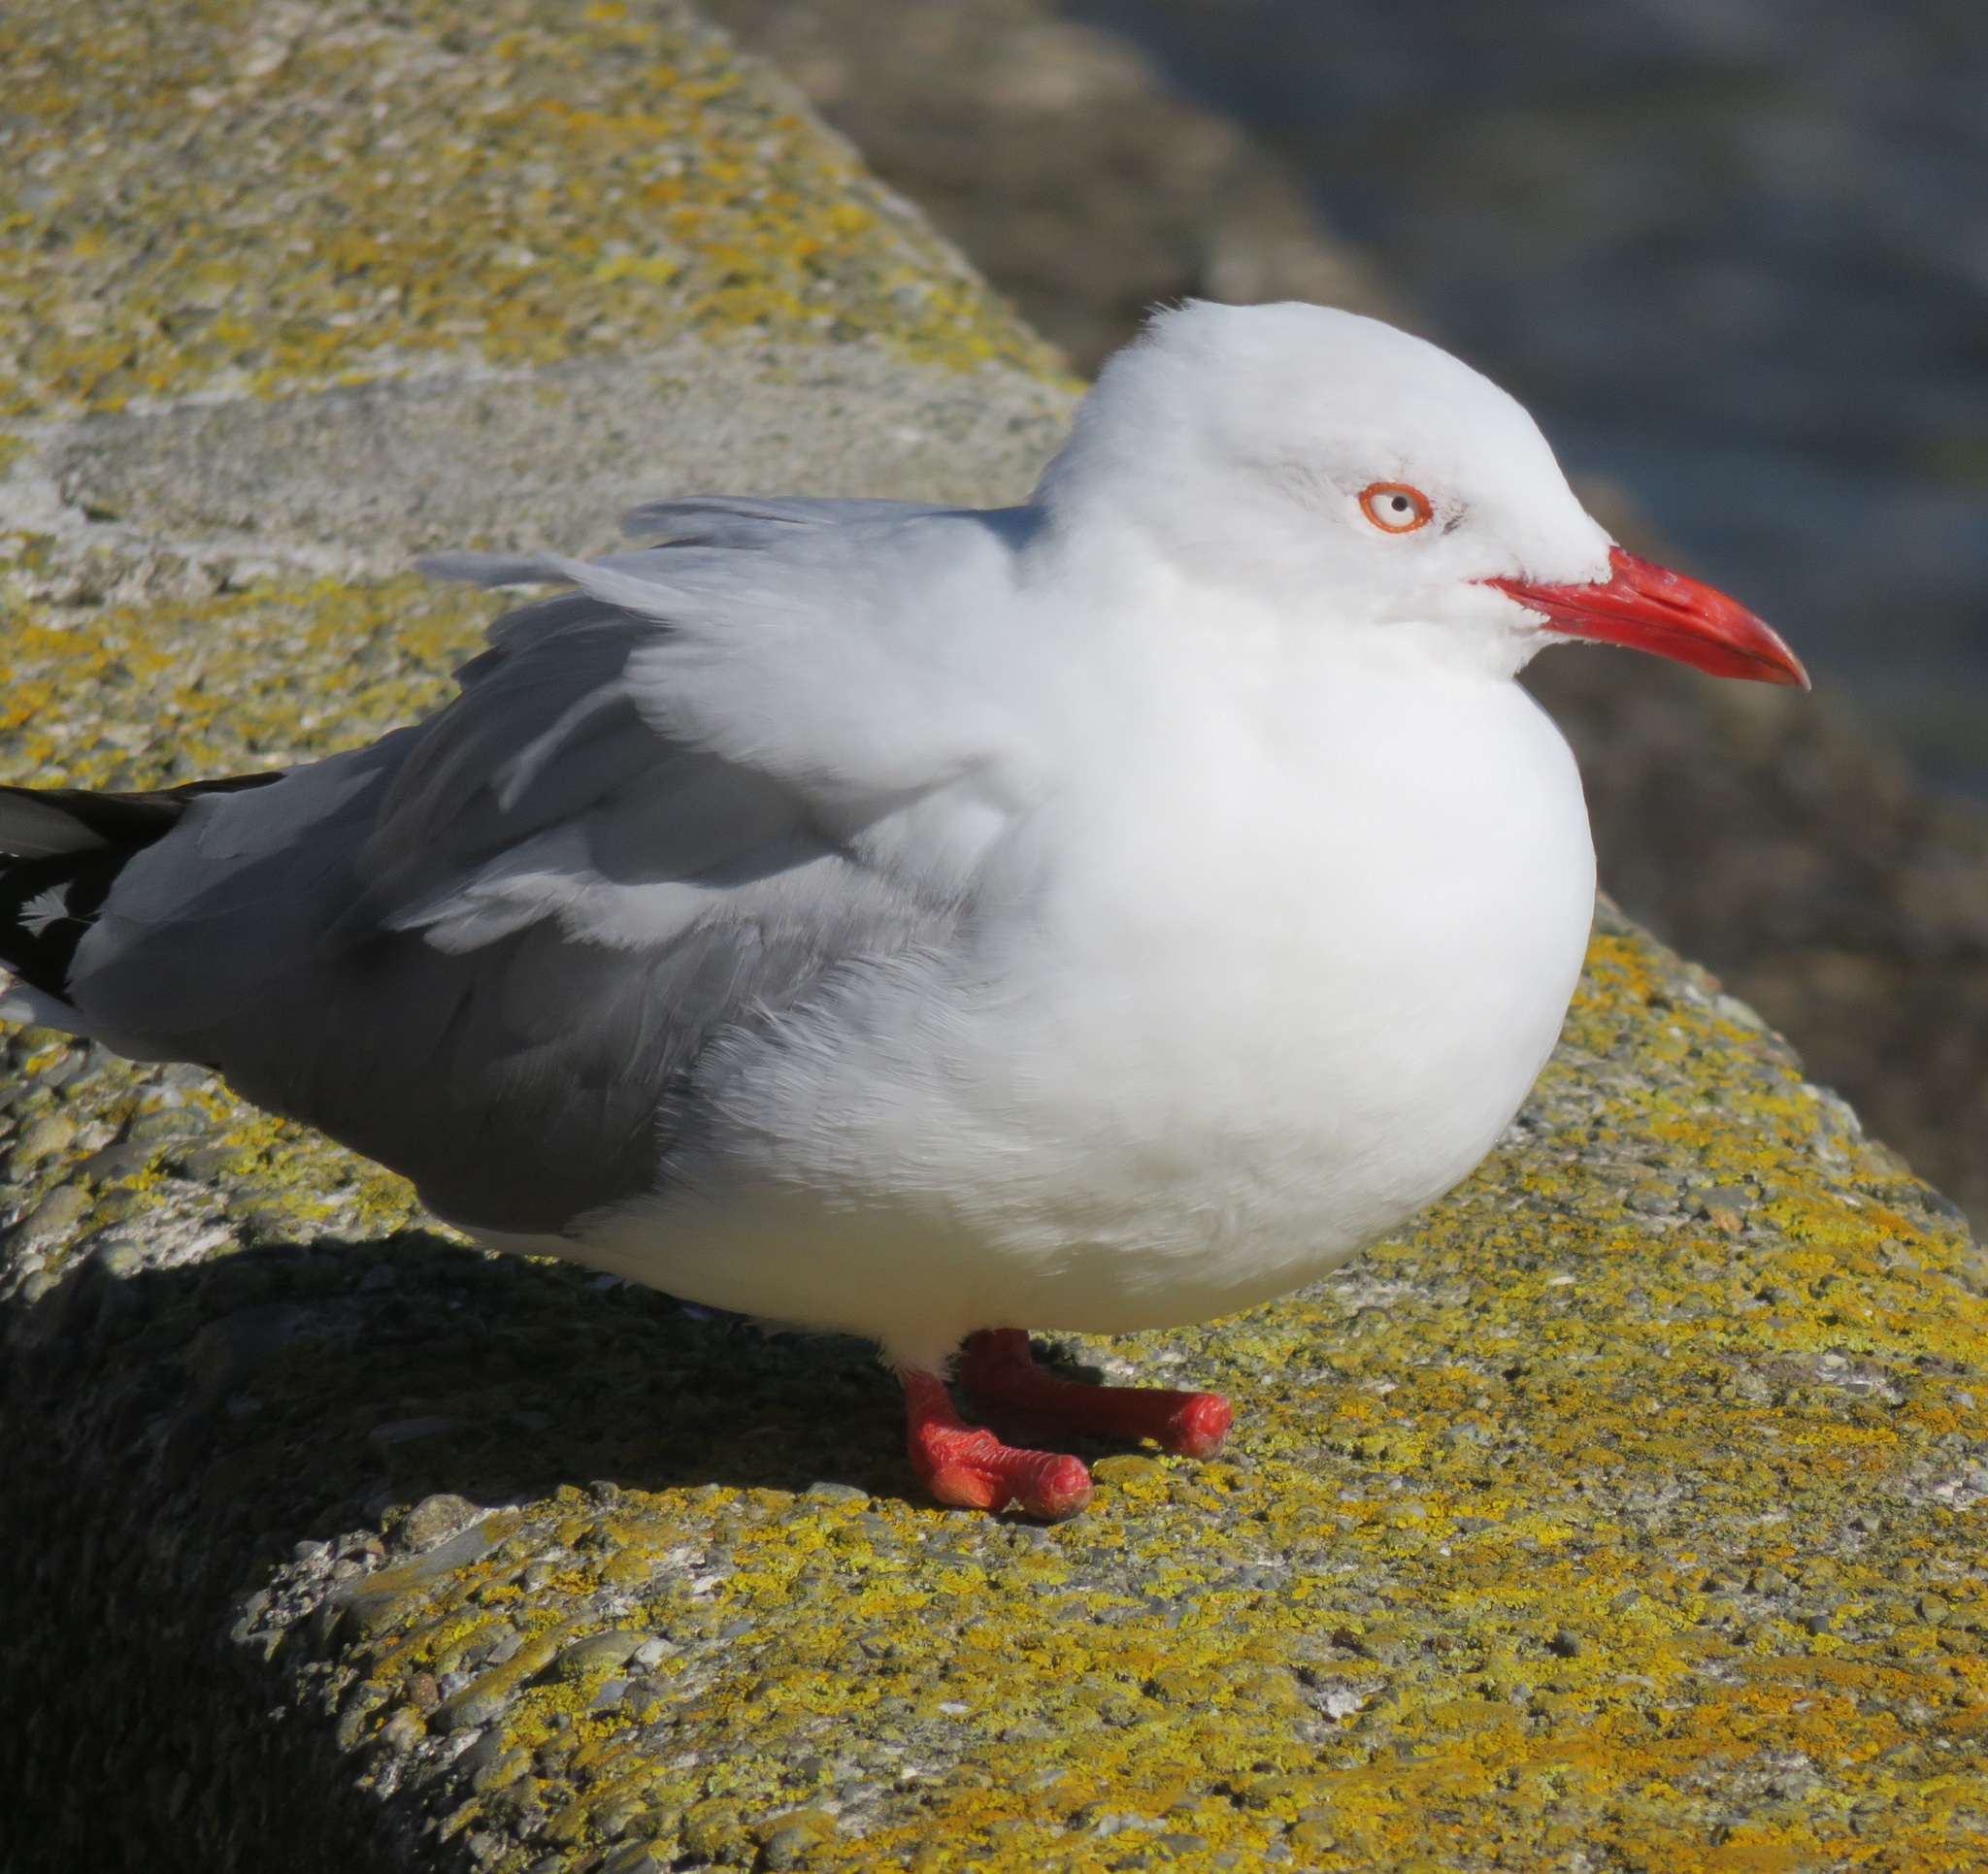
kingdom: Animalia
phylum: Chordata
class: Aves
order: Charadriiformes
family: Laridae
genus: Chroicocephalus
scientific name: Chroicocephalus novaehollandiae
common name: Silver gull
